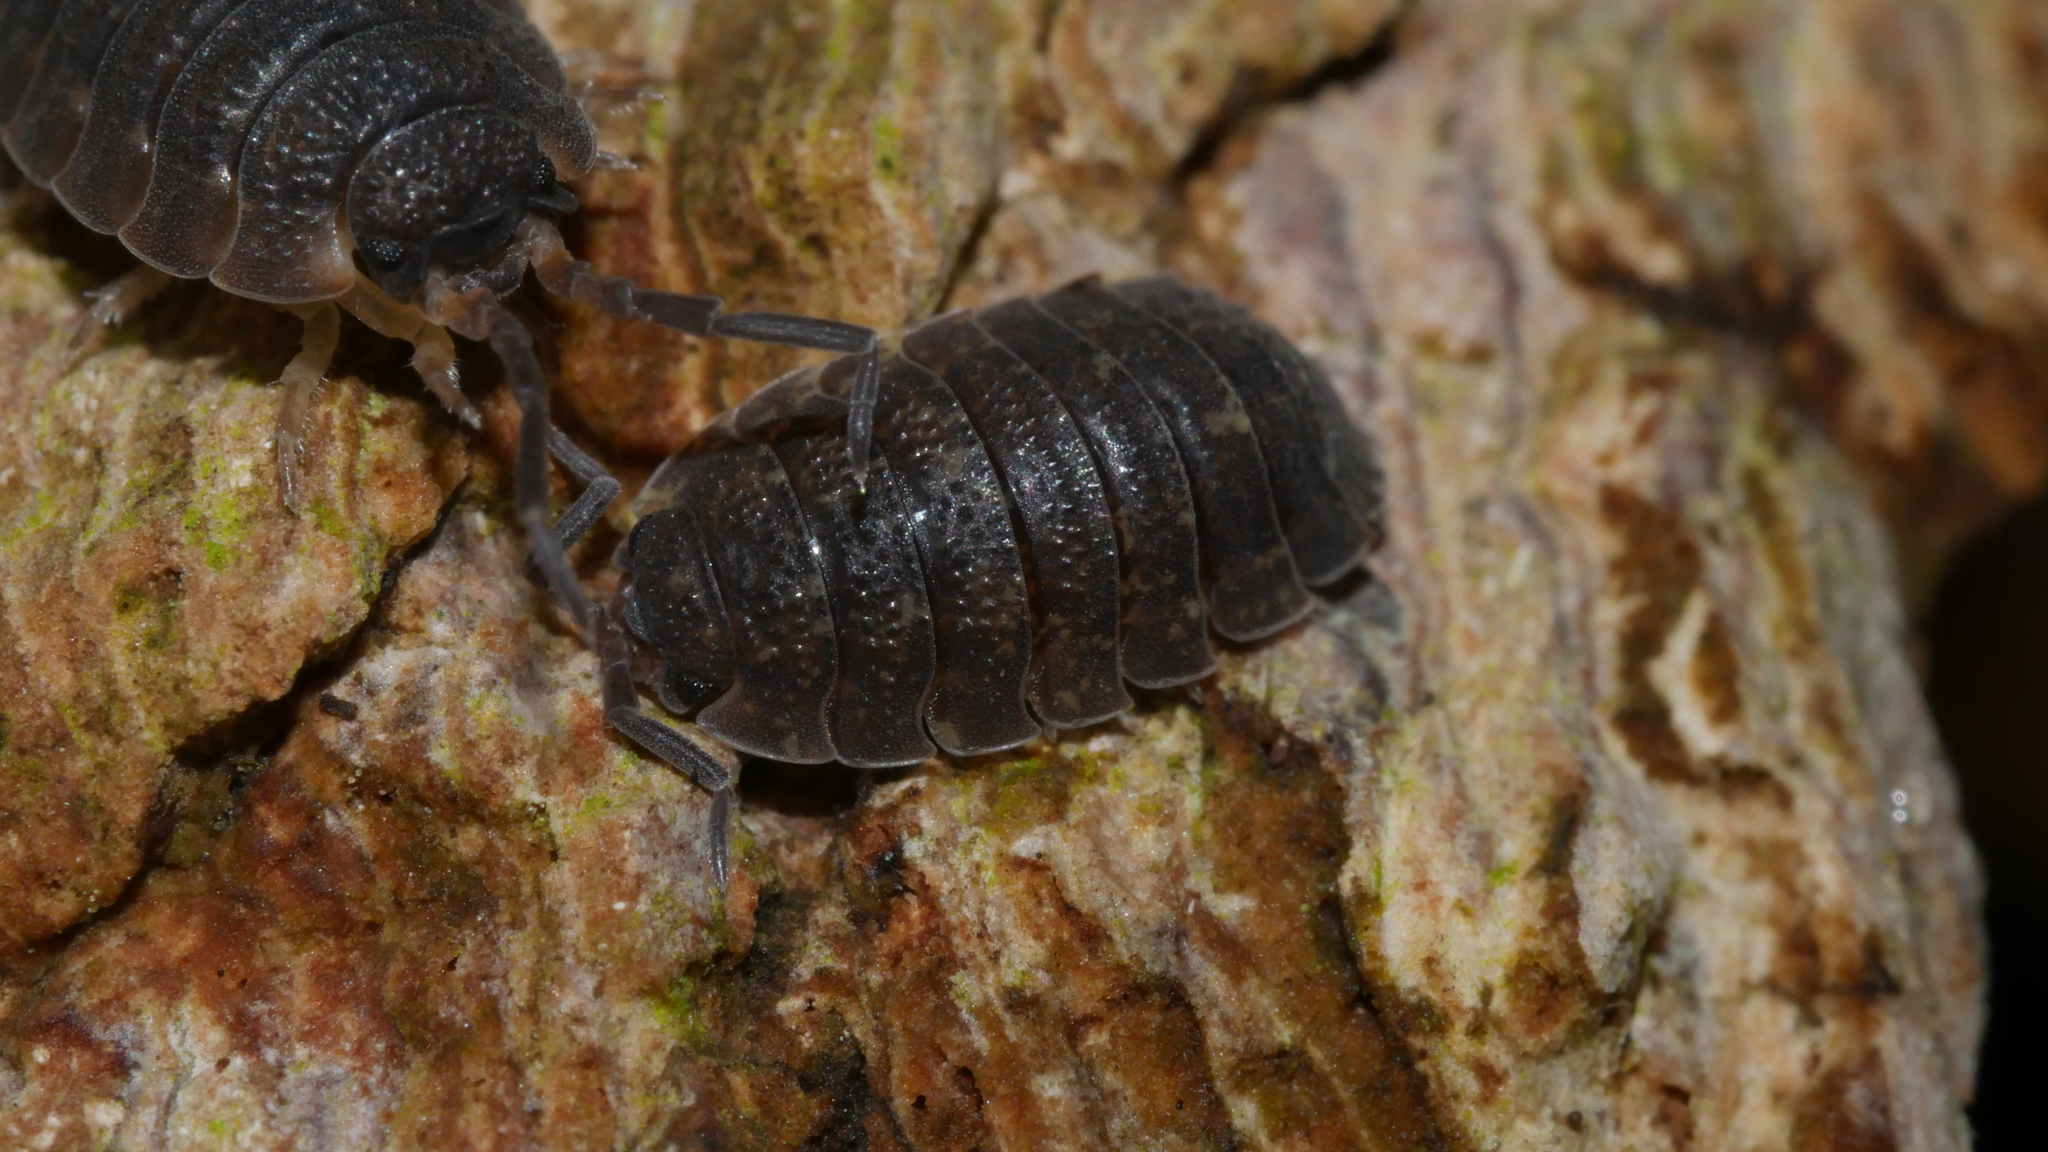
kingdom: Animalia
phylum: Arthropoda
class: Malacostraca
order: Isopoda
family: Porcellionidae
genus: Porcellio
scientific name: Porcellio scaber
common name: Common rough woodlouse
